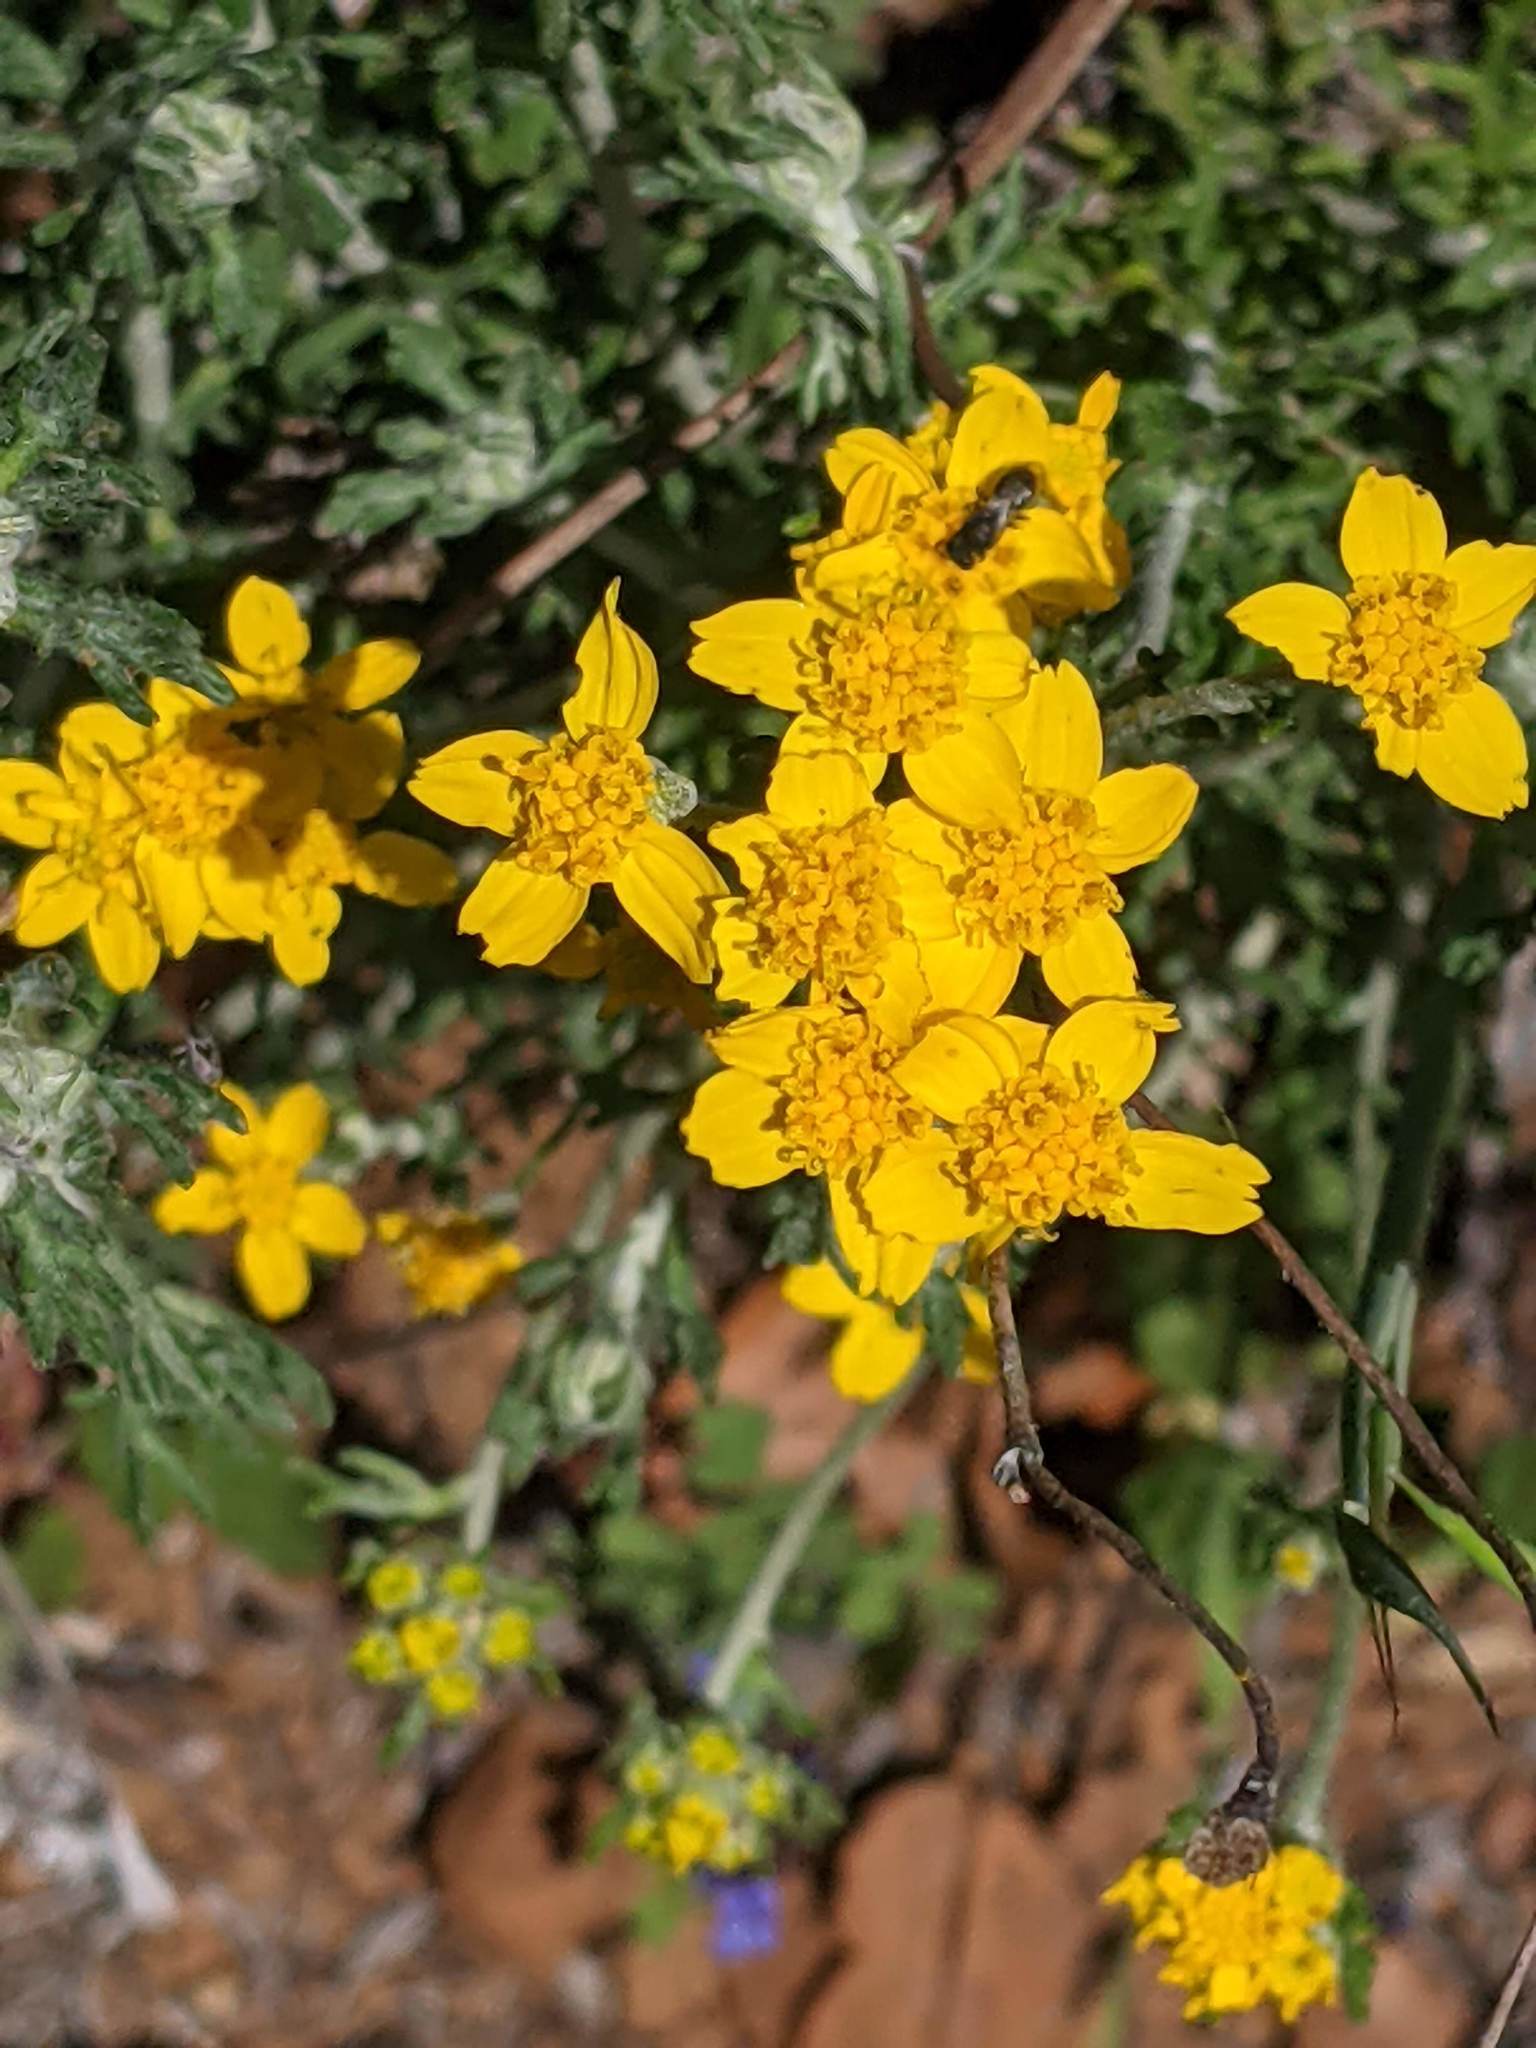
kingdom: Plantae
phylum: Tracheophyta
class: Magnoliopsida
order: Asterales
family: Asteraceae
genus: Eriophyllum
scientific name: Eriophyllum confertiflorum
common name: Golden-yarrow
